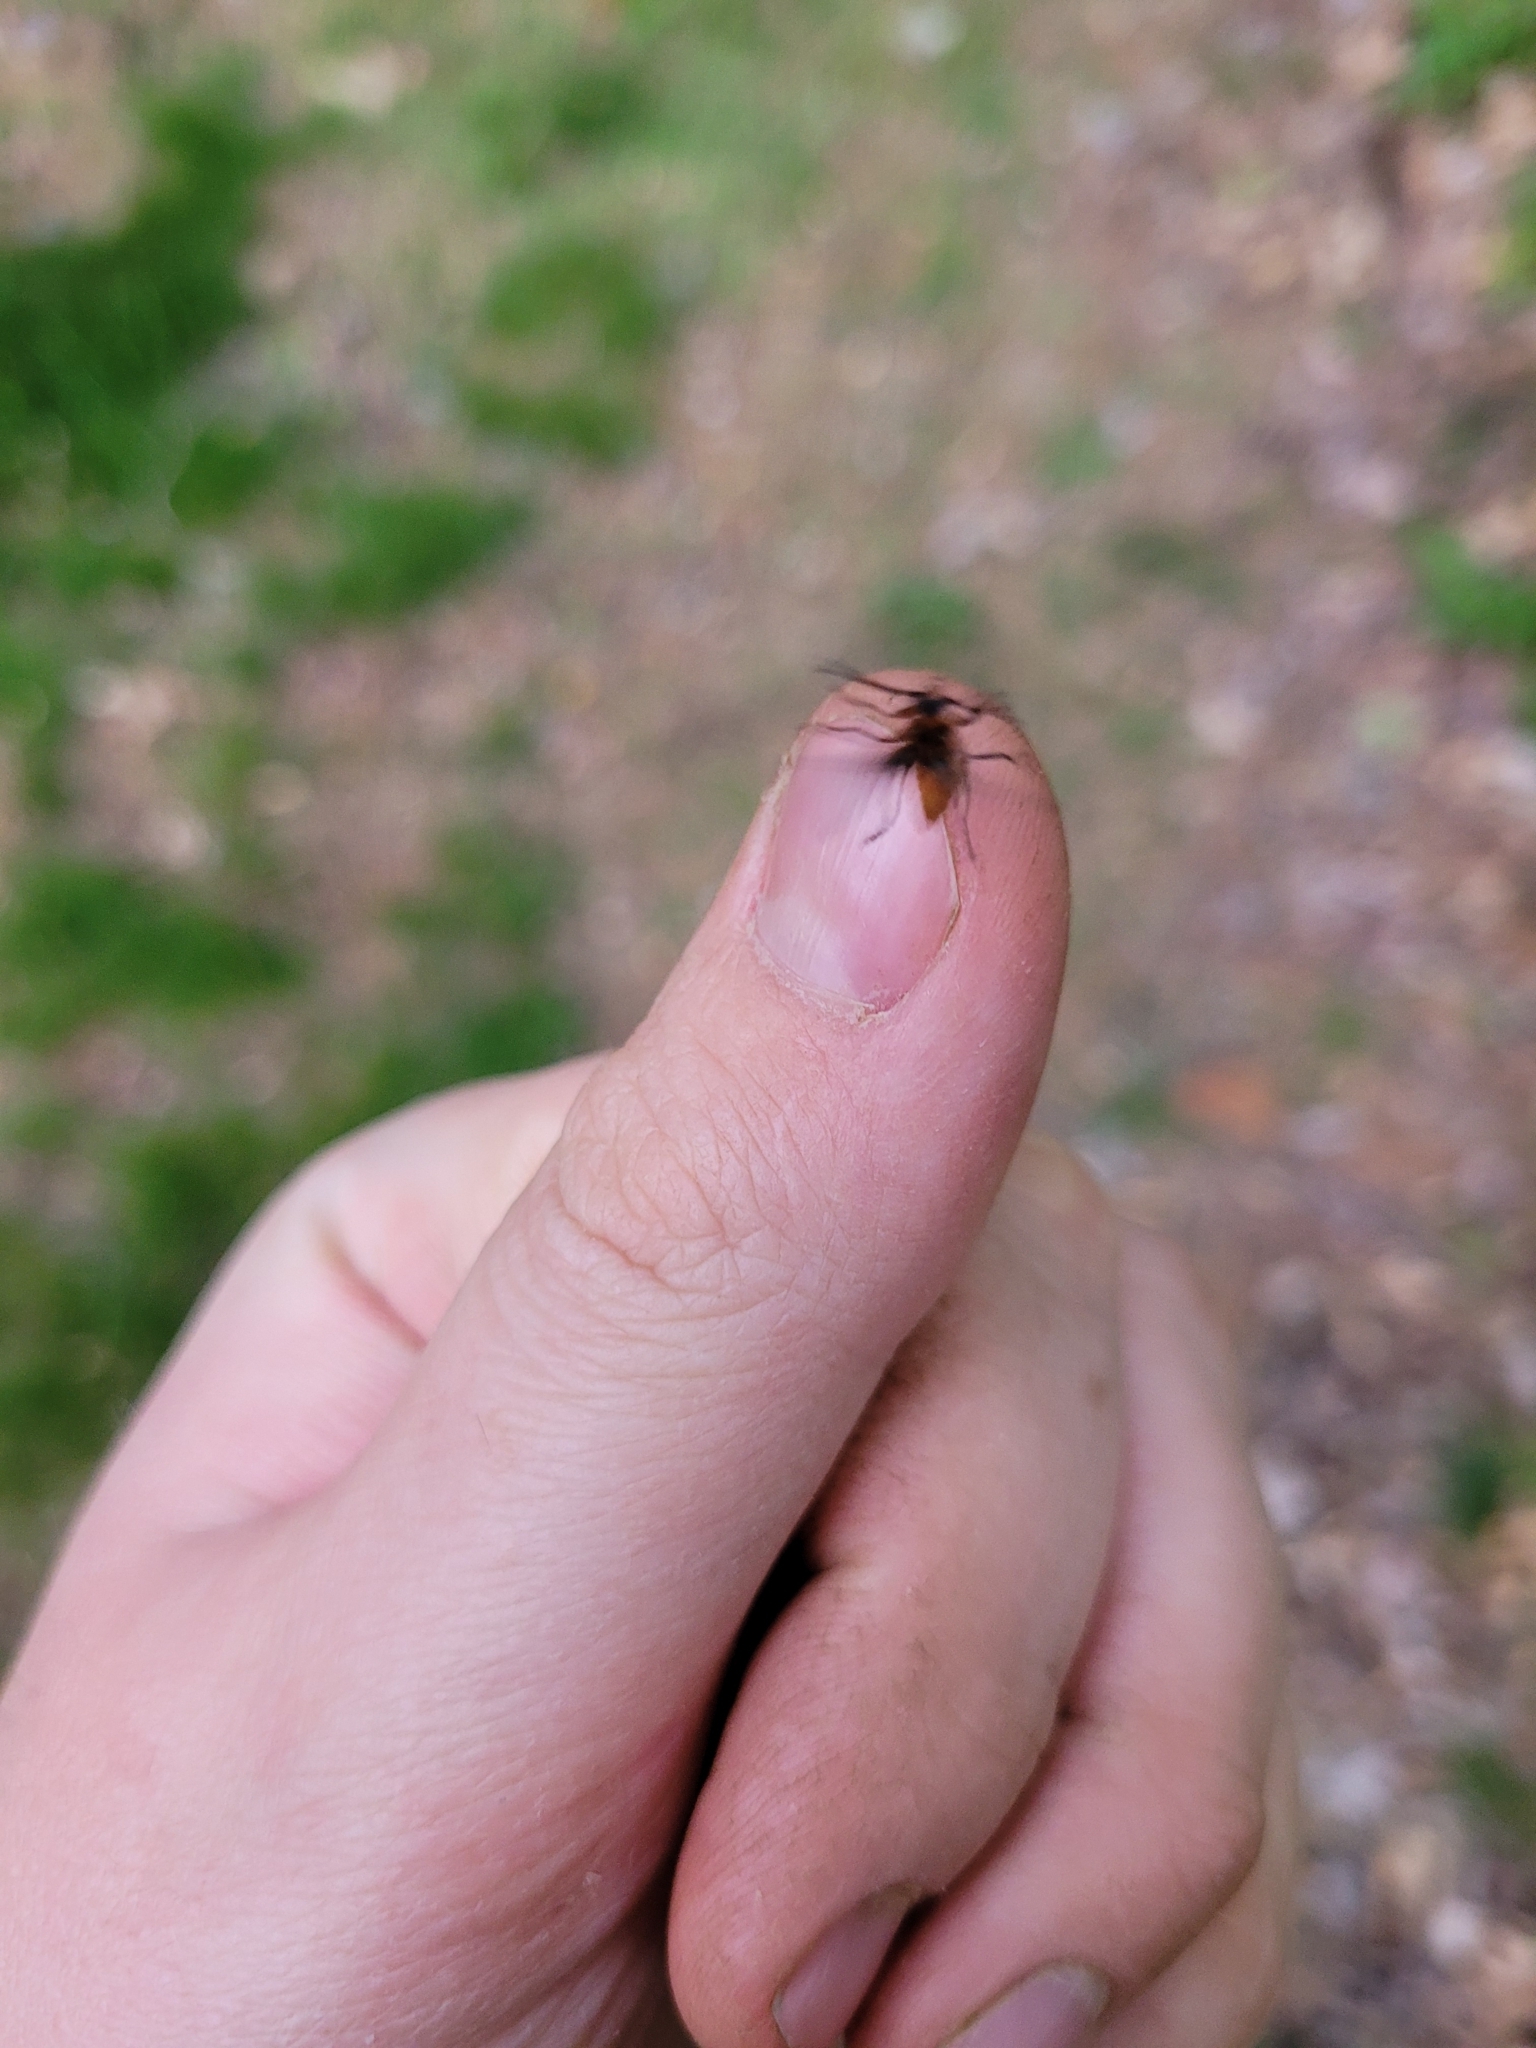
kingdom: Animalia
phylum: Arthropoda
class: Insecta
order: Coleoptera
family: Cantharidae
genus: Atalantycha
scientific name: Atalantycha bilineata
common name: Two-lined leatherwing
